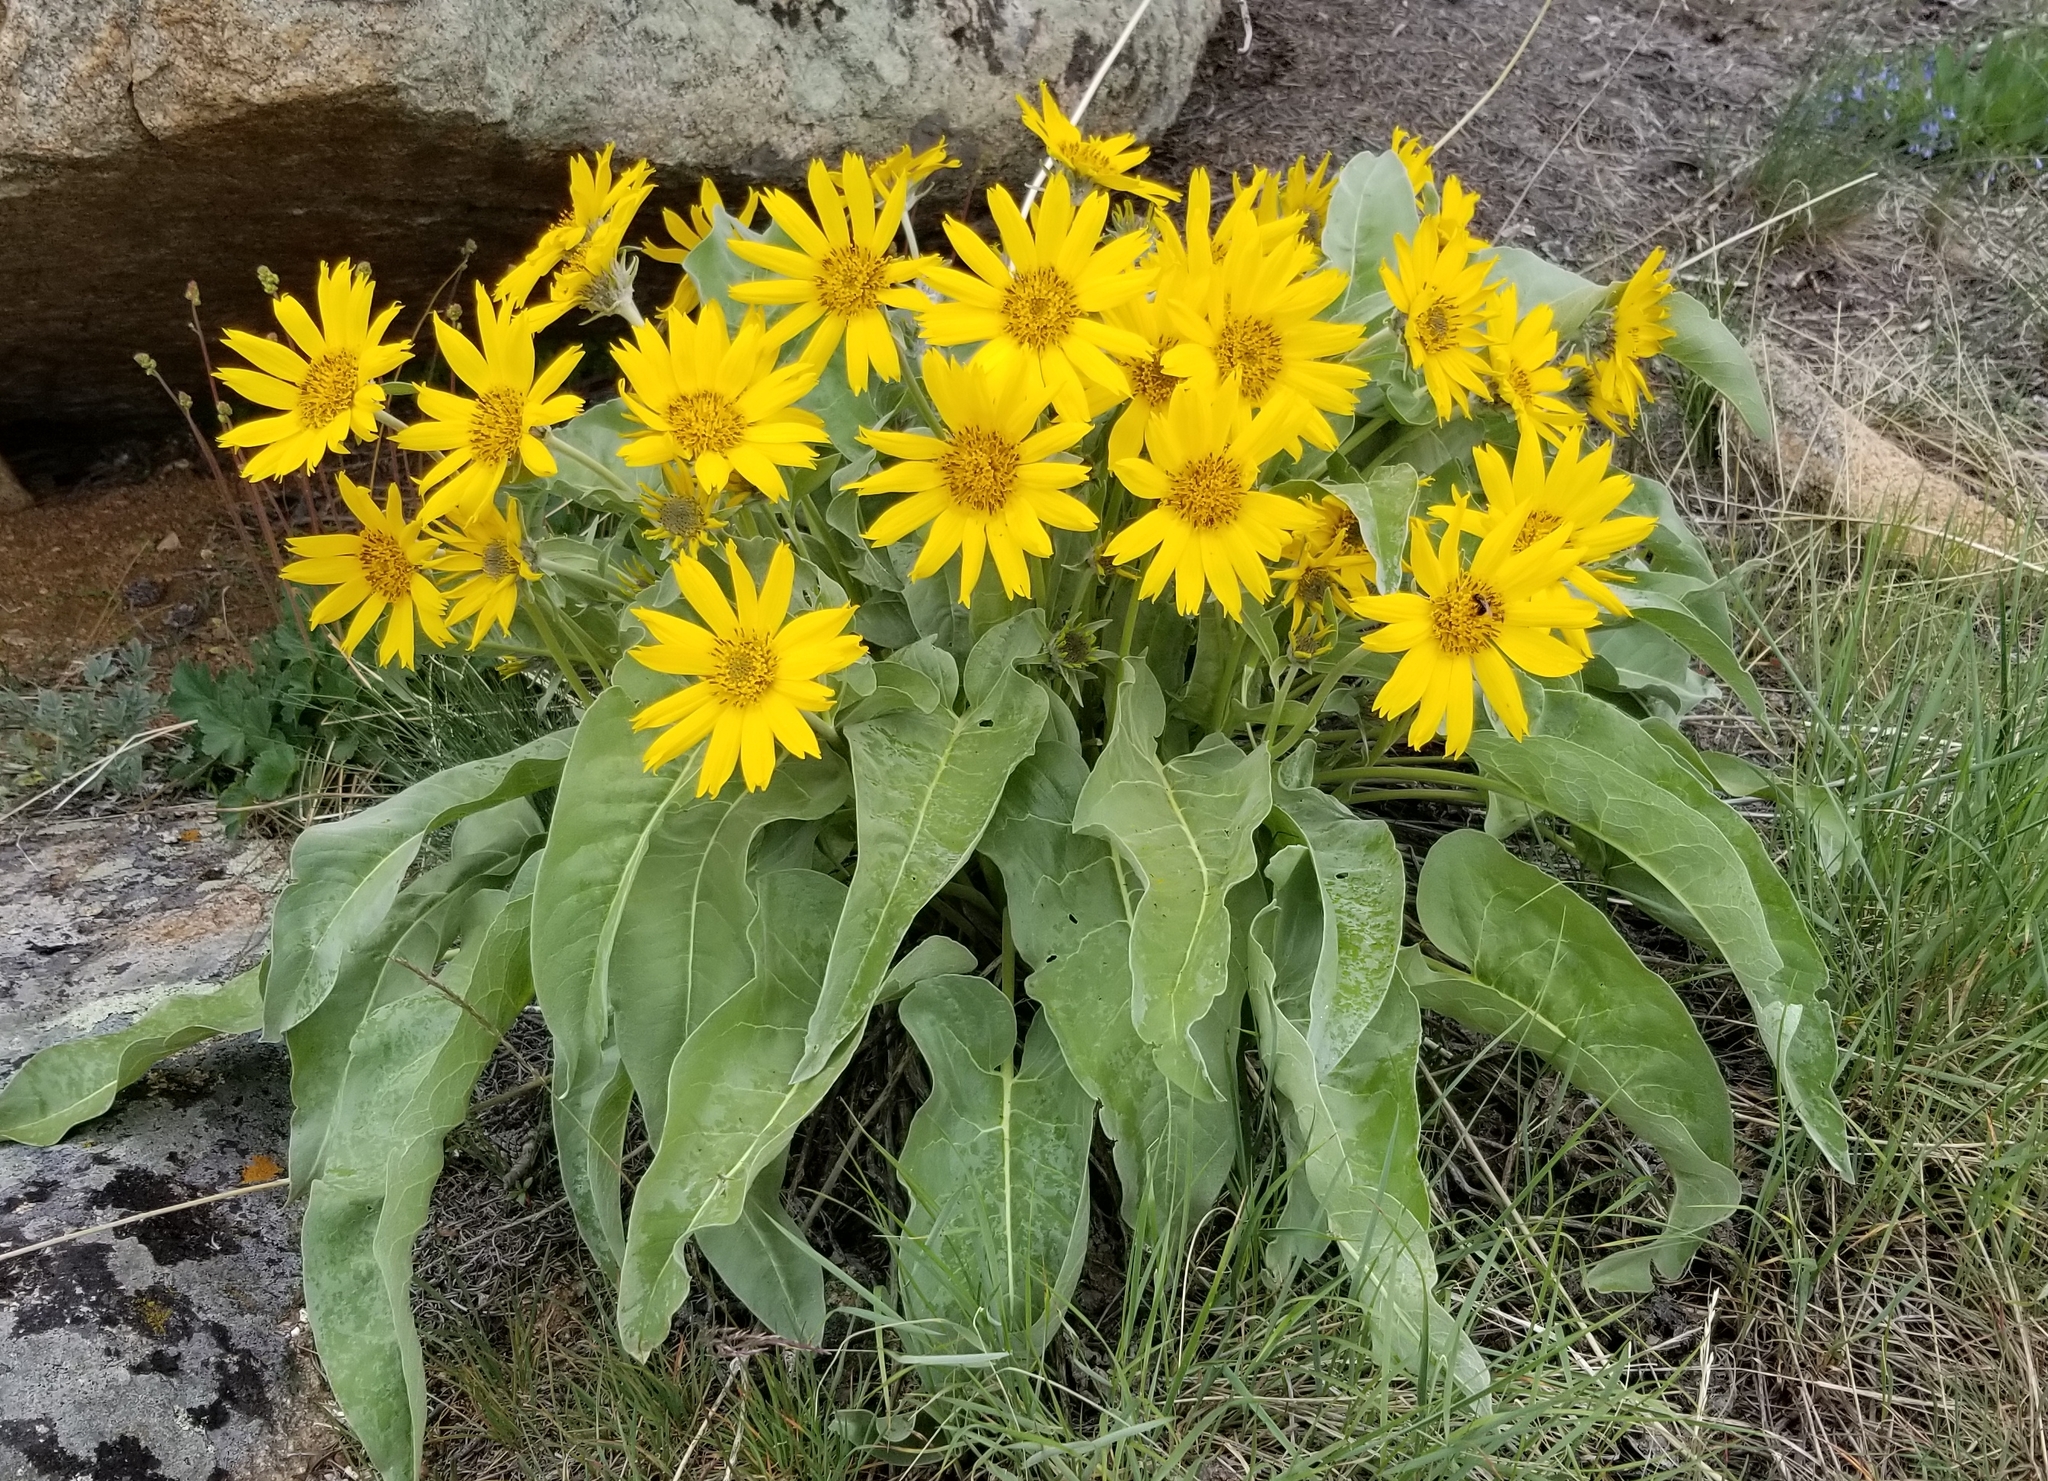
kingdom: Plantae
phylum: Tracheophyta
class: Magnoliopsida
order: Asterales
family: Asteraceae
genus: Wyethia
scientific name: Wyethia sagittata
